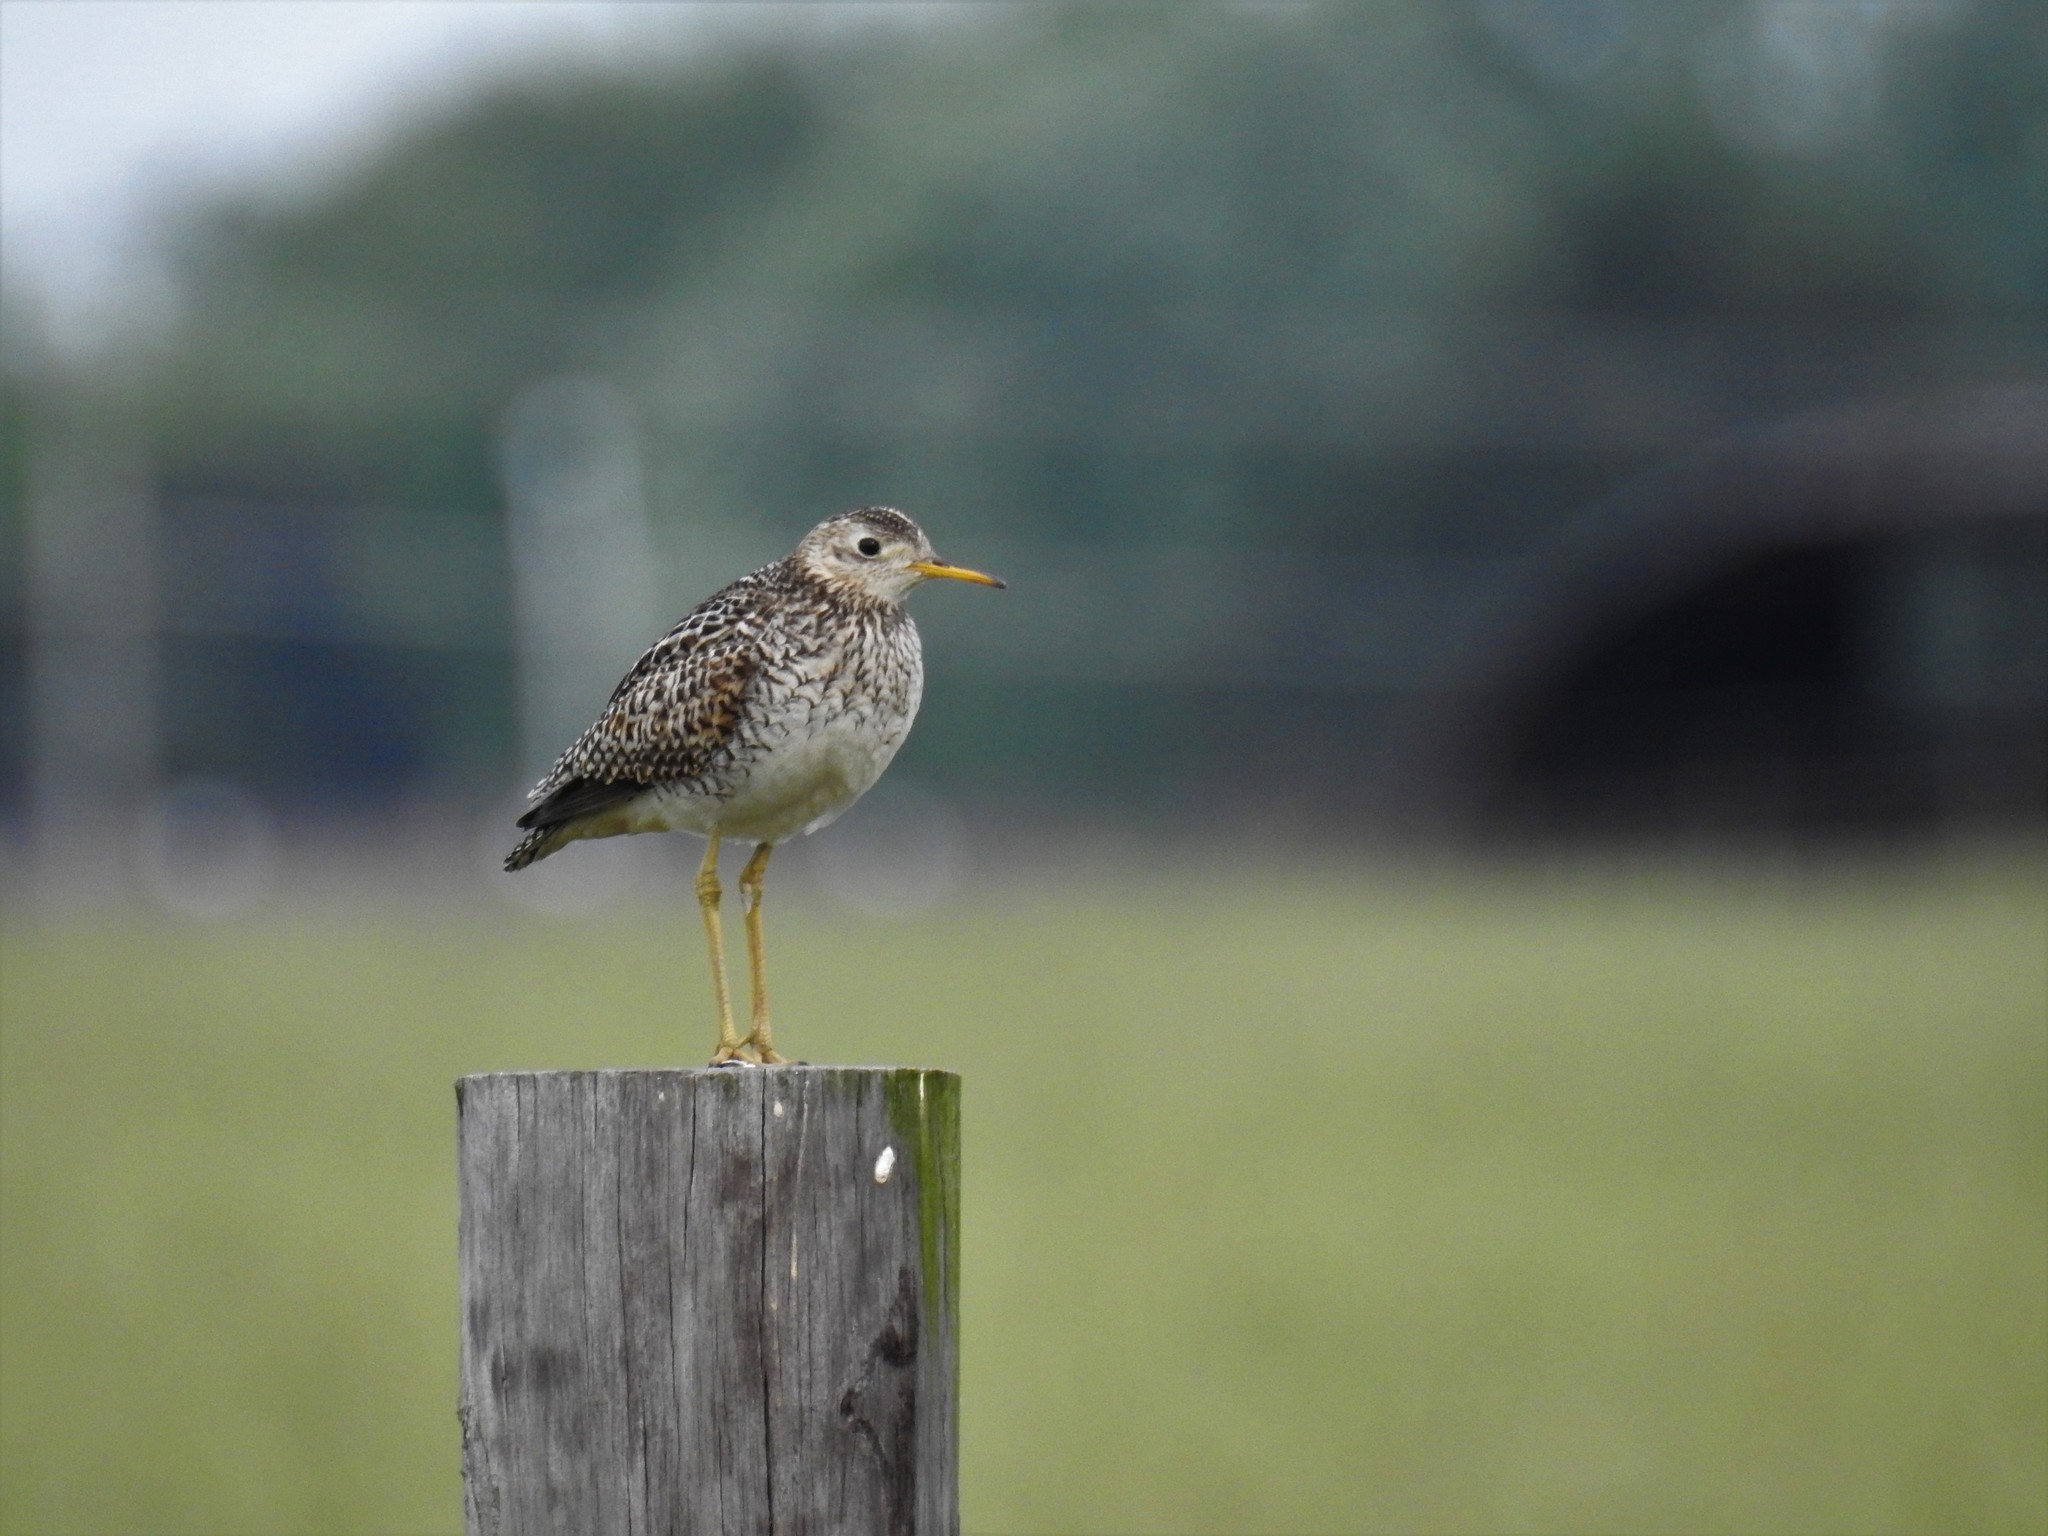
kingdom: Animalia
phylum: Chordata
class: Aves
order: Charadriiformes
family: Scolopacidae
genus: Bartramia
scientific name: Bartramia longicauda
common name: Upland sandpiper
